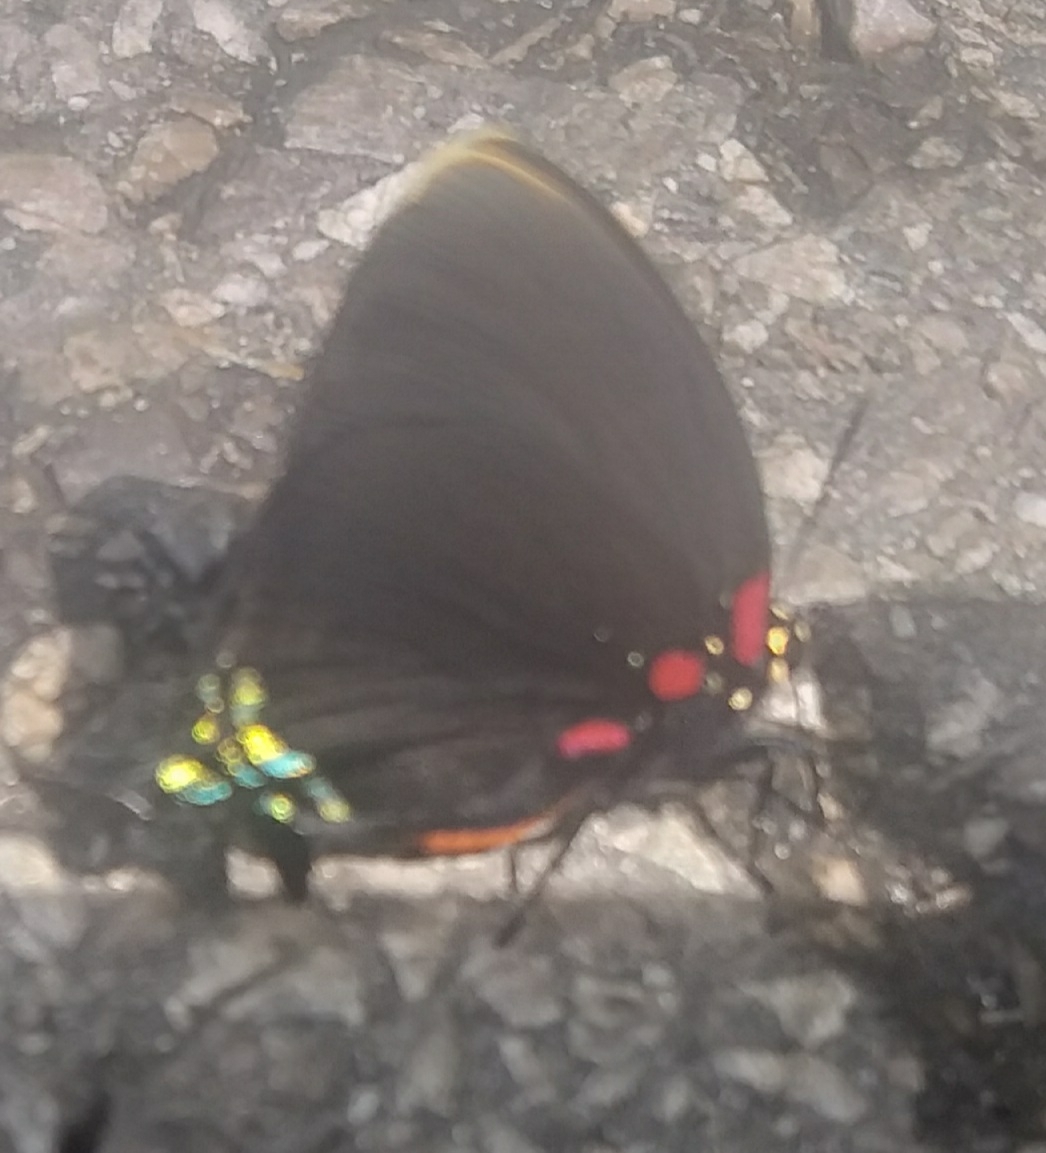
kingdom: Animalia
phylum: Arthropoda
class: Insecta
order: Lepidoptera
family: Lycaenidae
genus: Atlides
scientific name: Atlides
